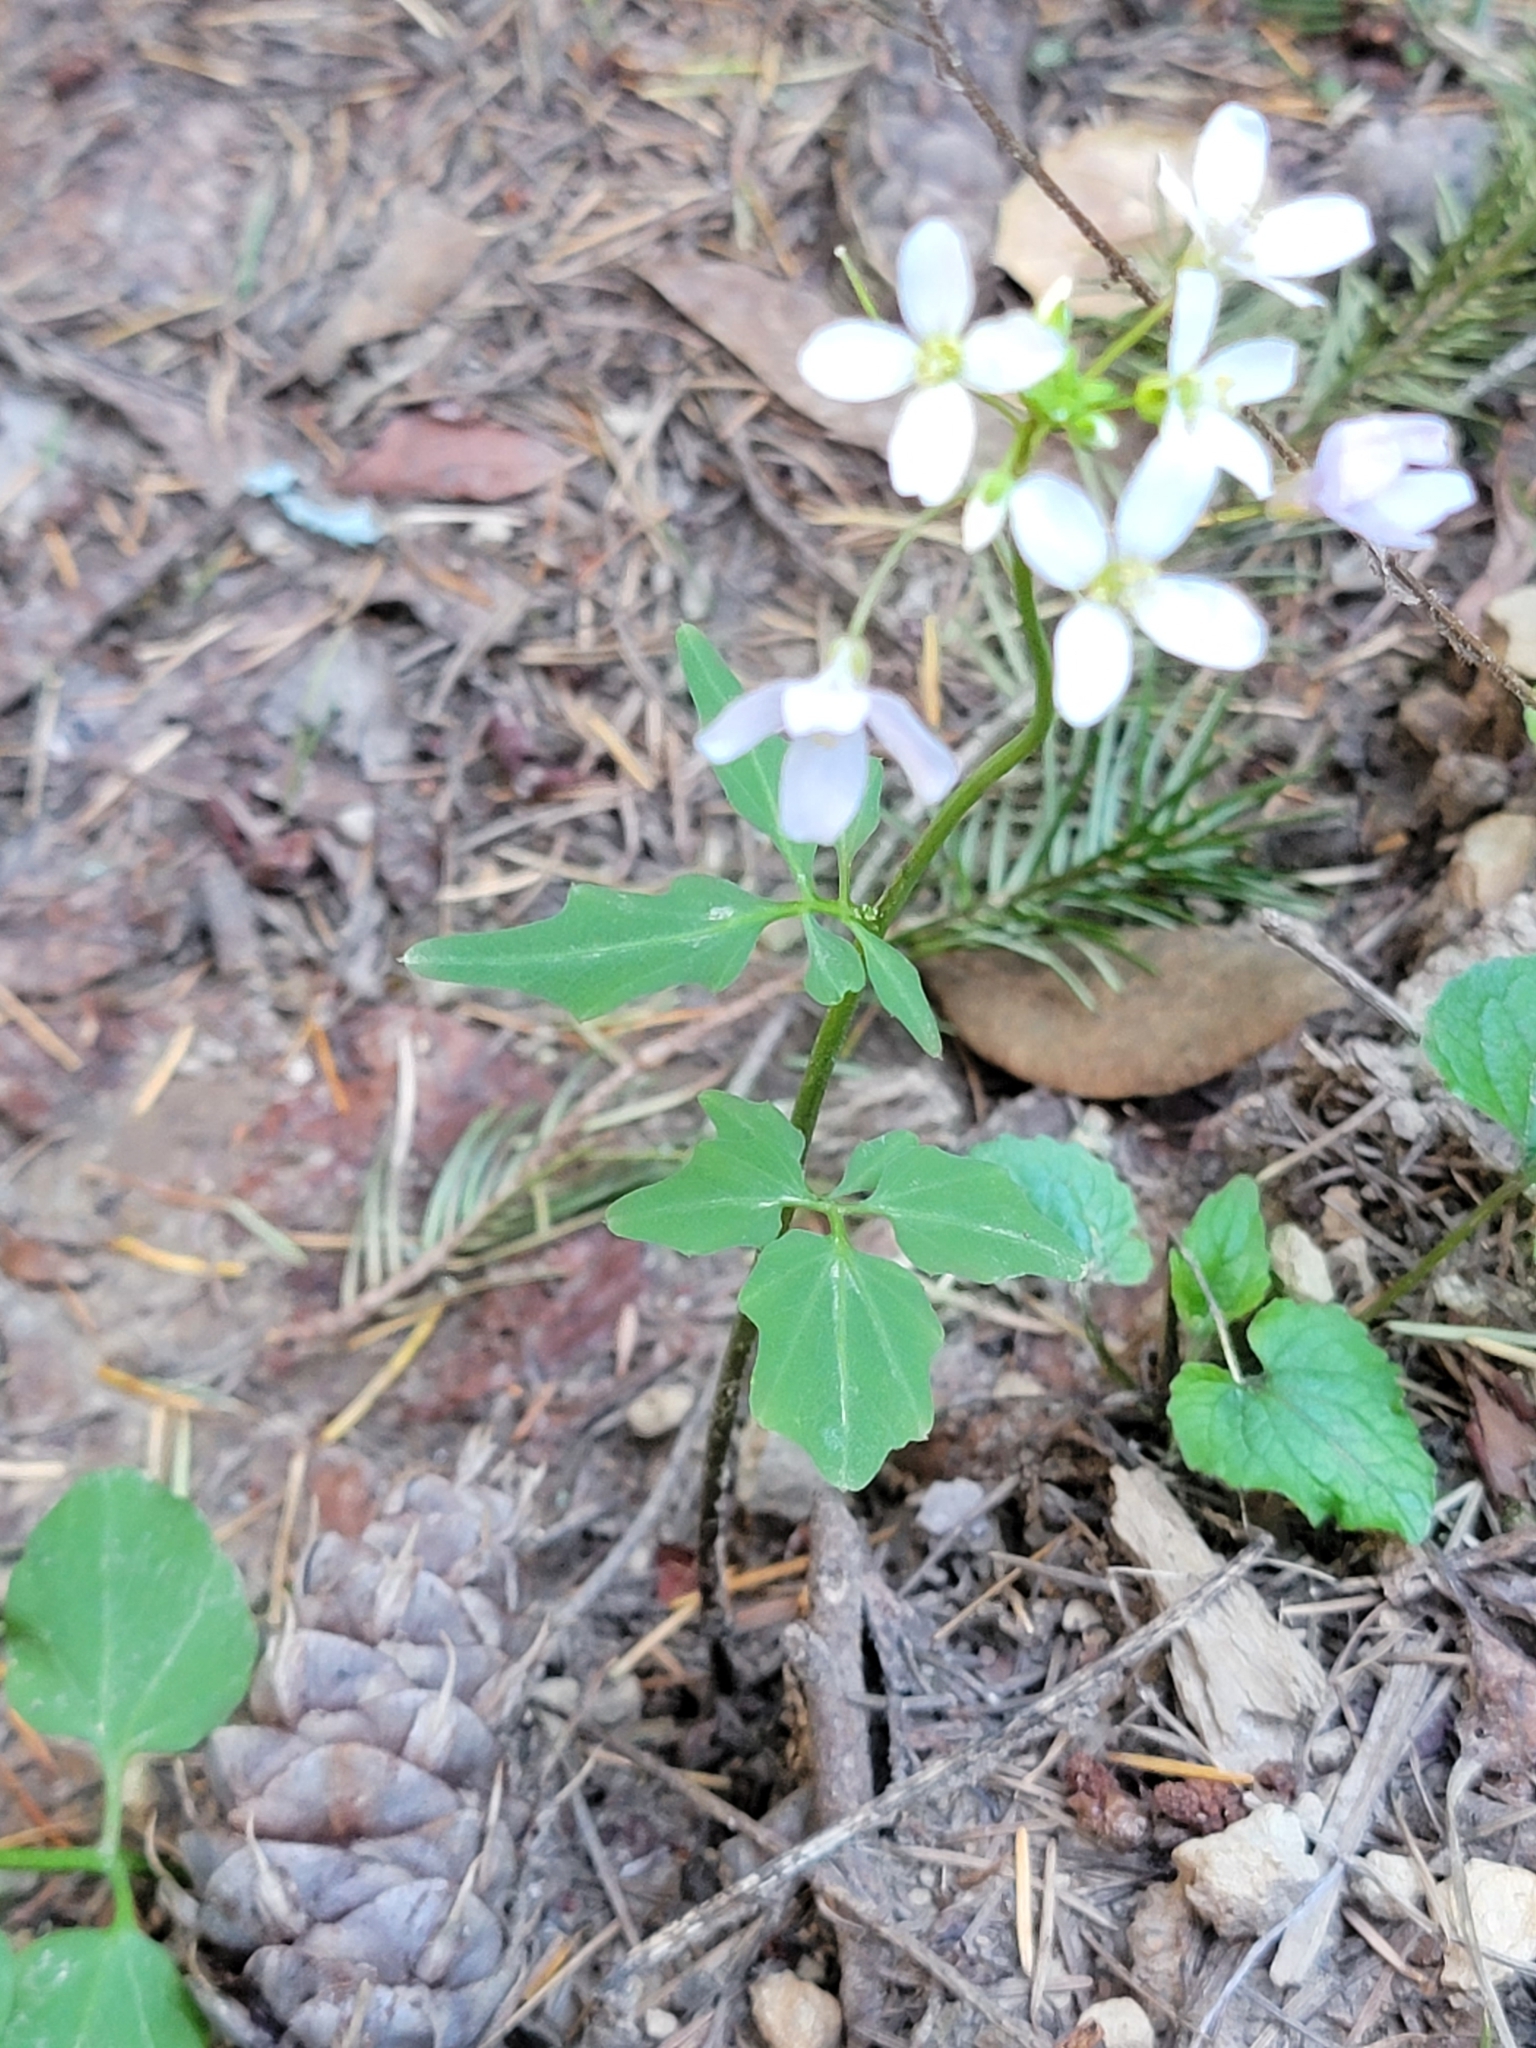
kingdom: Plantae
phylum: Tracheophyta
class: Magnoliopsida
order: Brassicales
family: Brassicaceae
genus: Cardamine
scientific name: Cardamine californica
